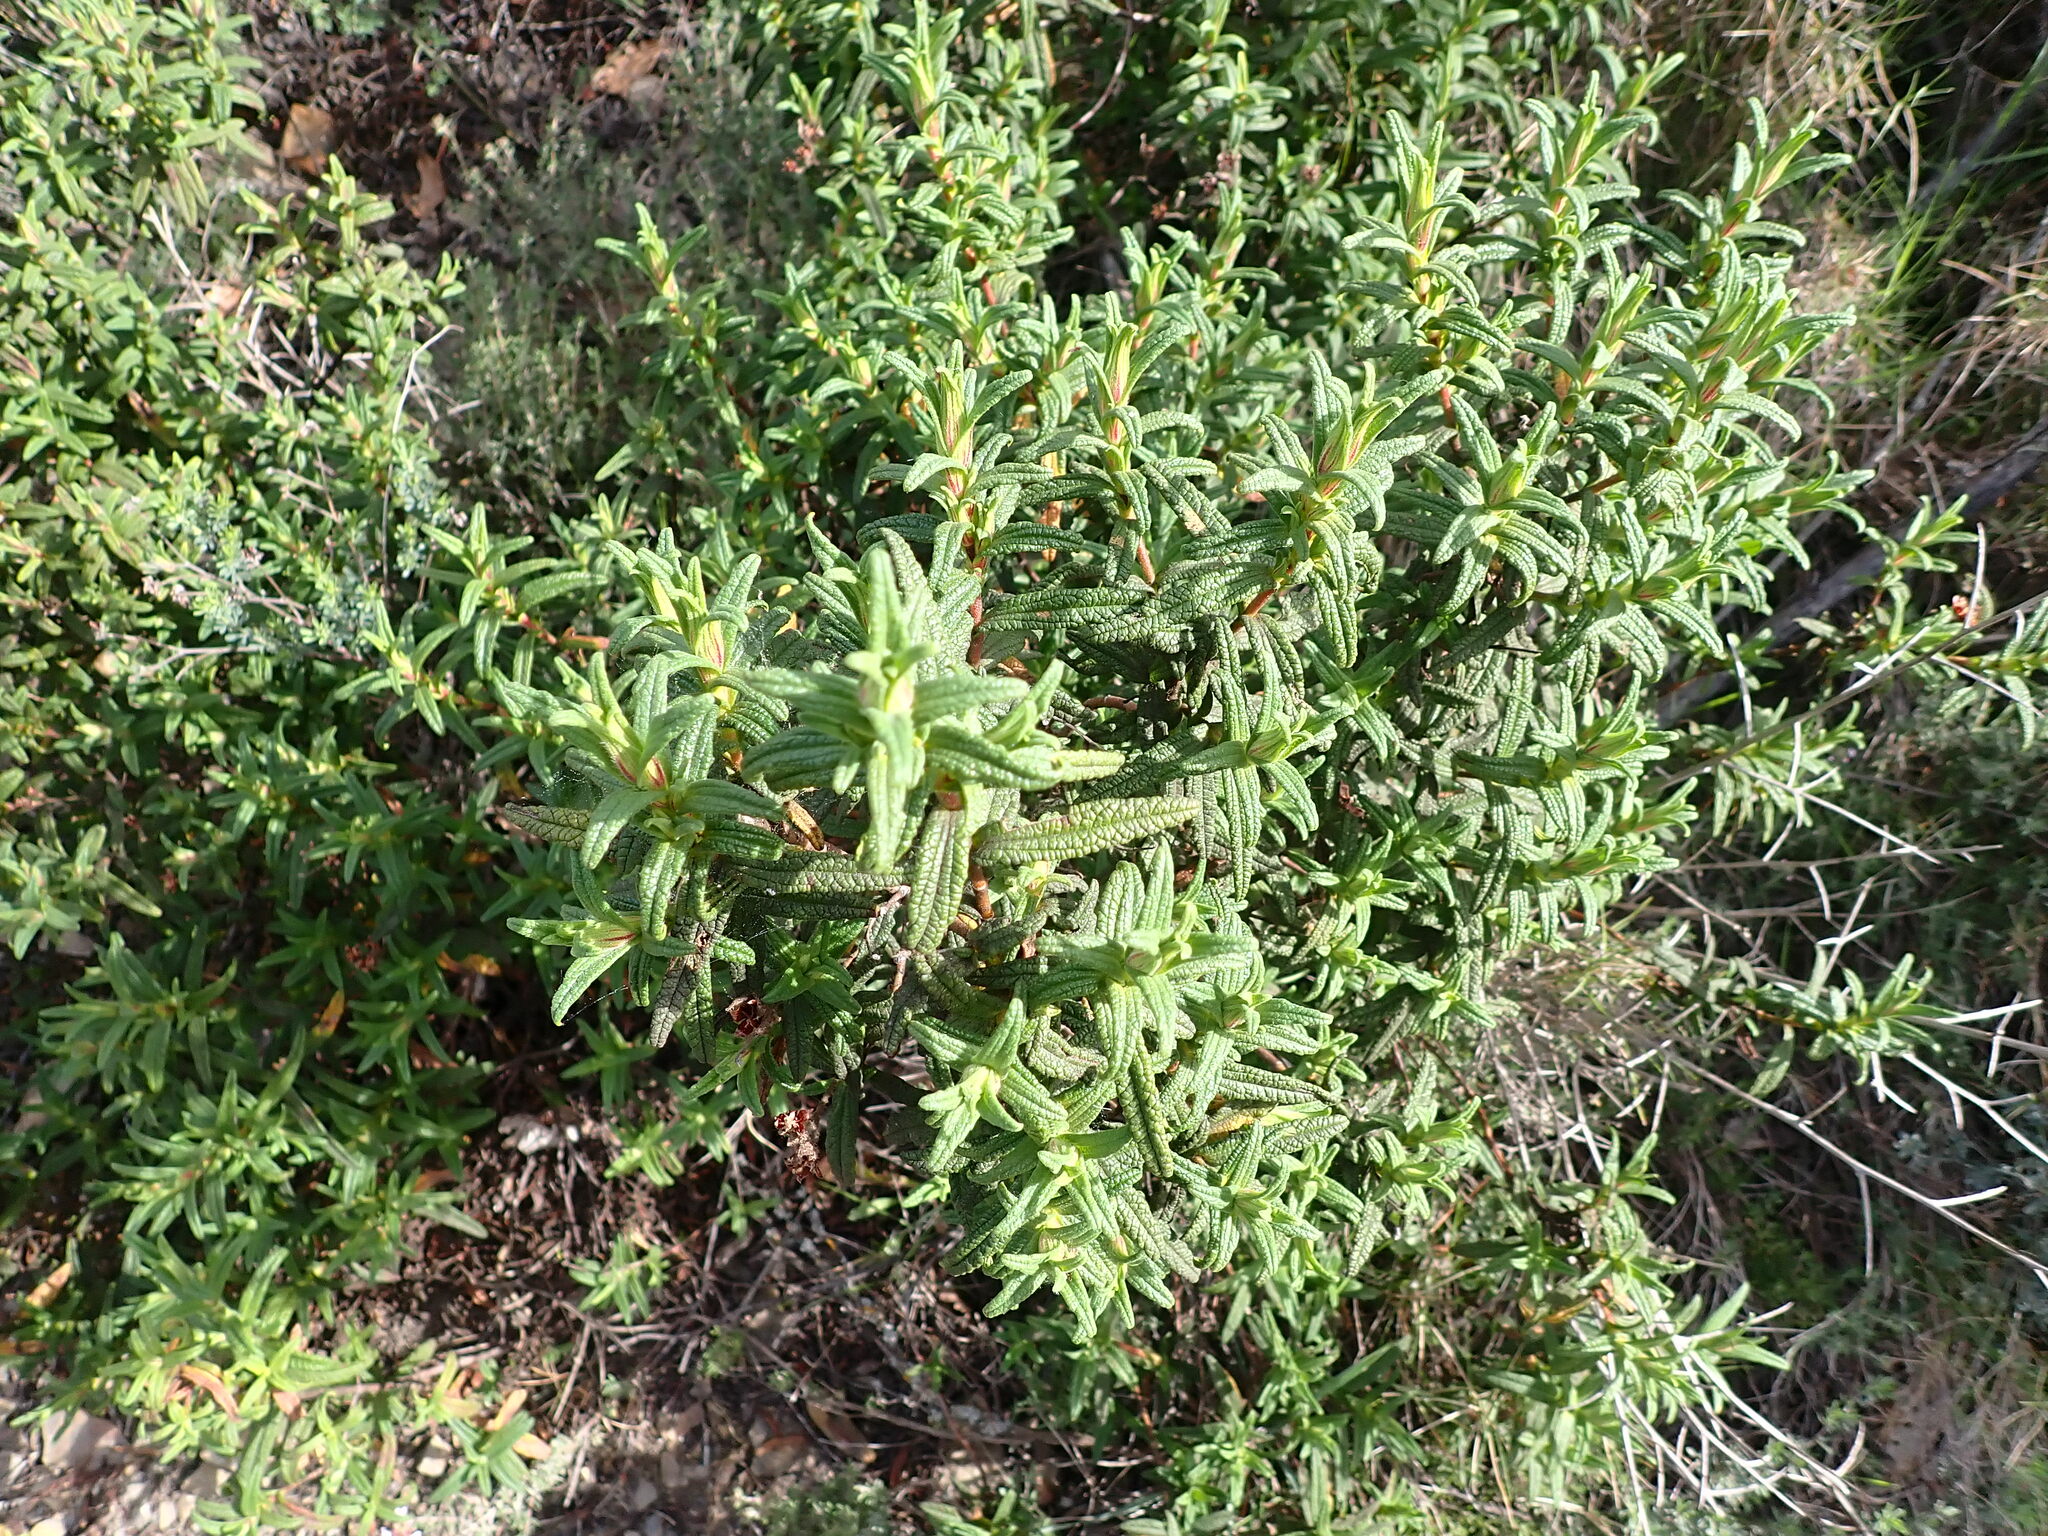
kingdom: Plantae
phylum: Tracheophyta
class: Magnoliopsida
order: Malvales
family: Cistaceae
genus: Cistus
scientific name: Cistus monspeliensis
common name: Montpelier cistus
